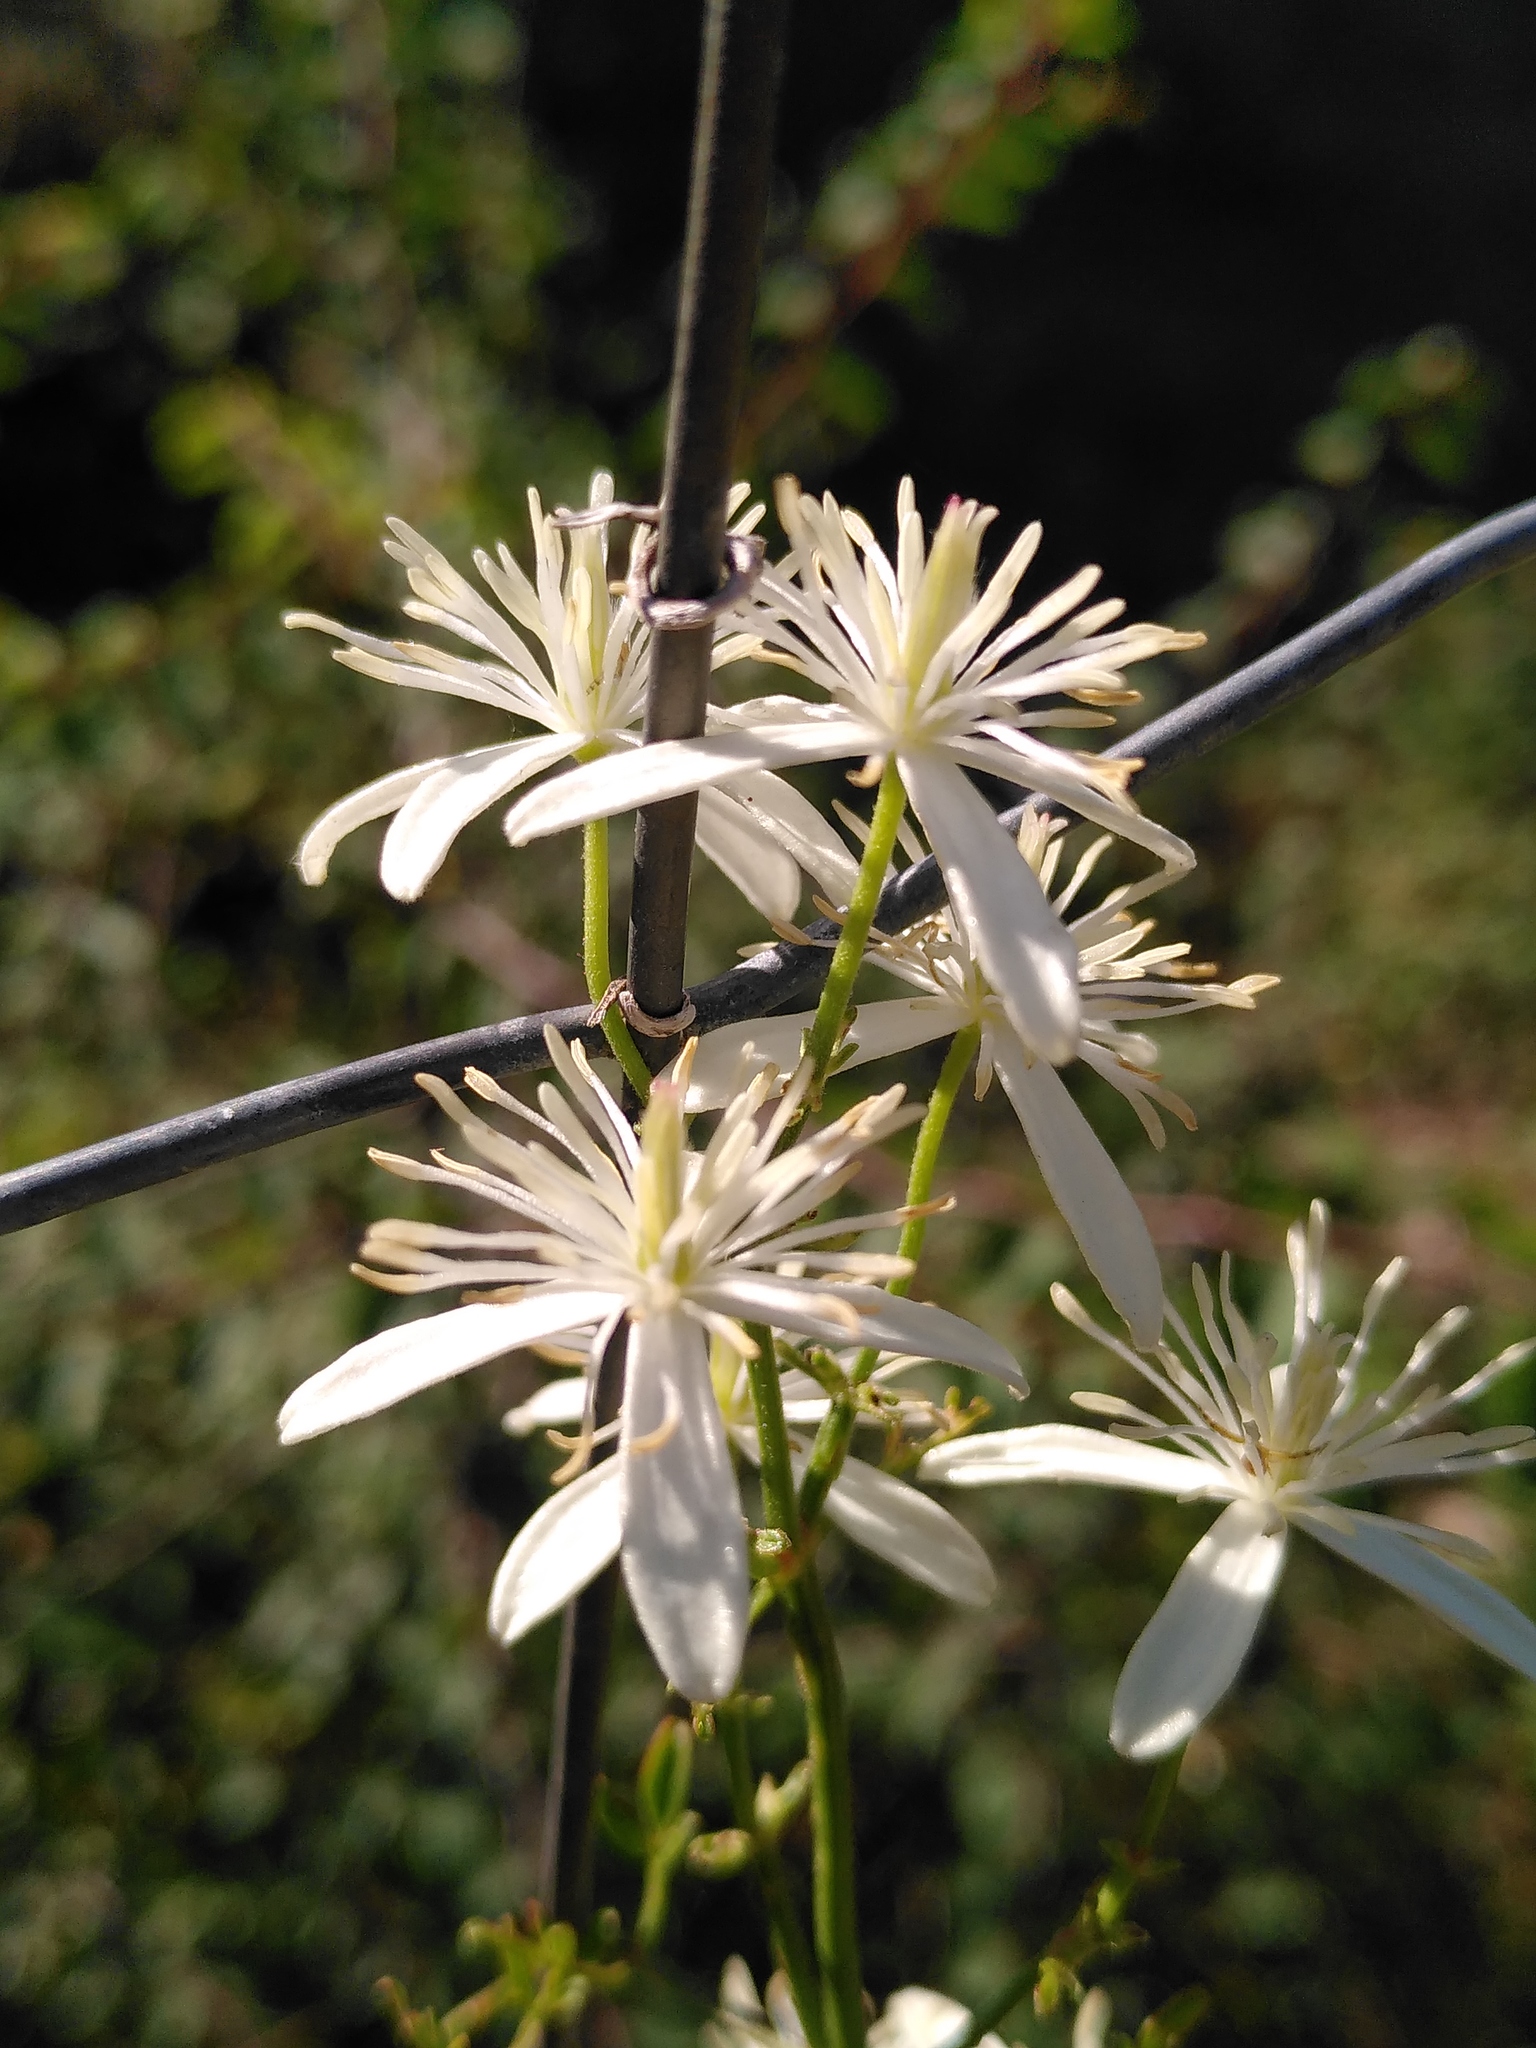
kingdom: Plantae
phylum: Tracheophyta
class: Magnoliopsida
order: Ranunculales
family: Ranunculaceae
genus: Clematis
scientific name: Clematis flammula
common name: Virgin's-bower
